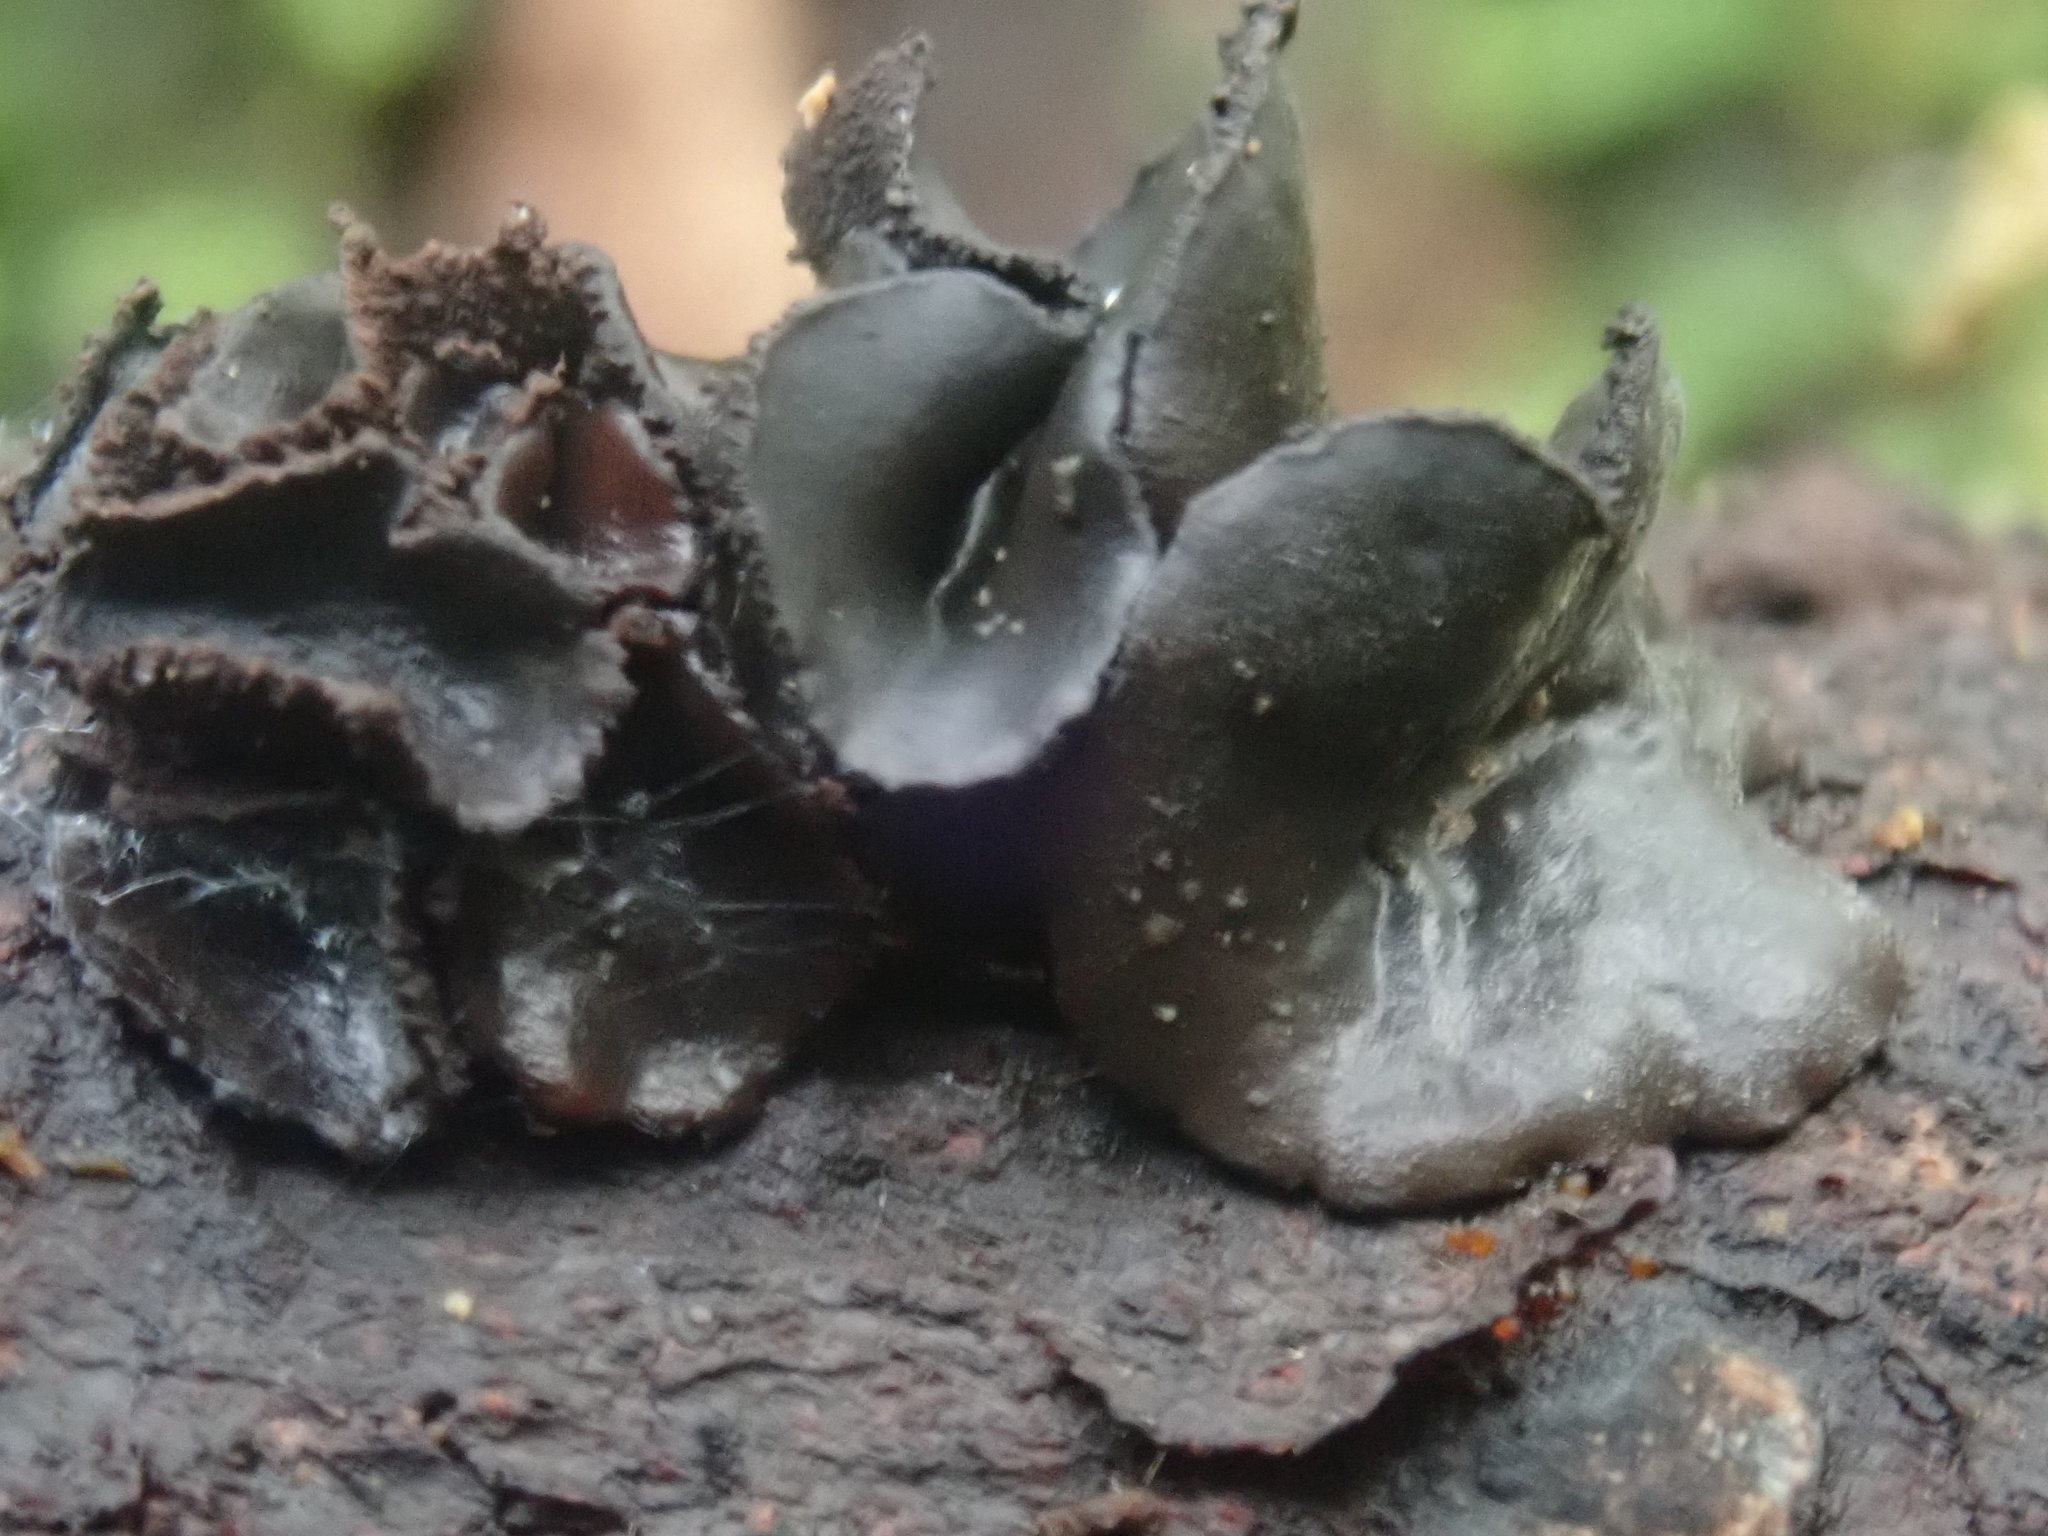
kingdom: Fungi
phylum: Ascomycota
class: Leotiomycetes
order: Helotiales
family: Cordieritidaceae
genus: Cordierites
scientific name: Cordierites frondosus
